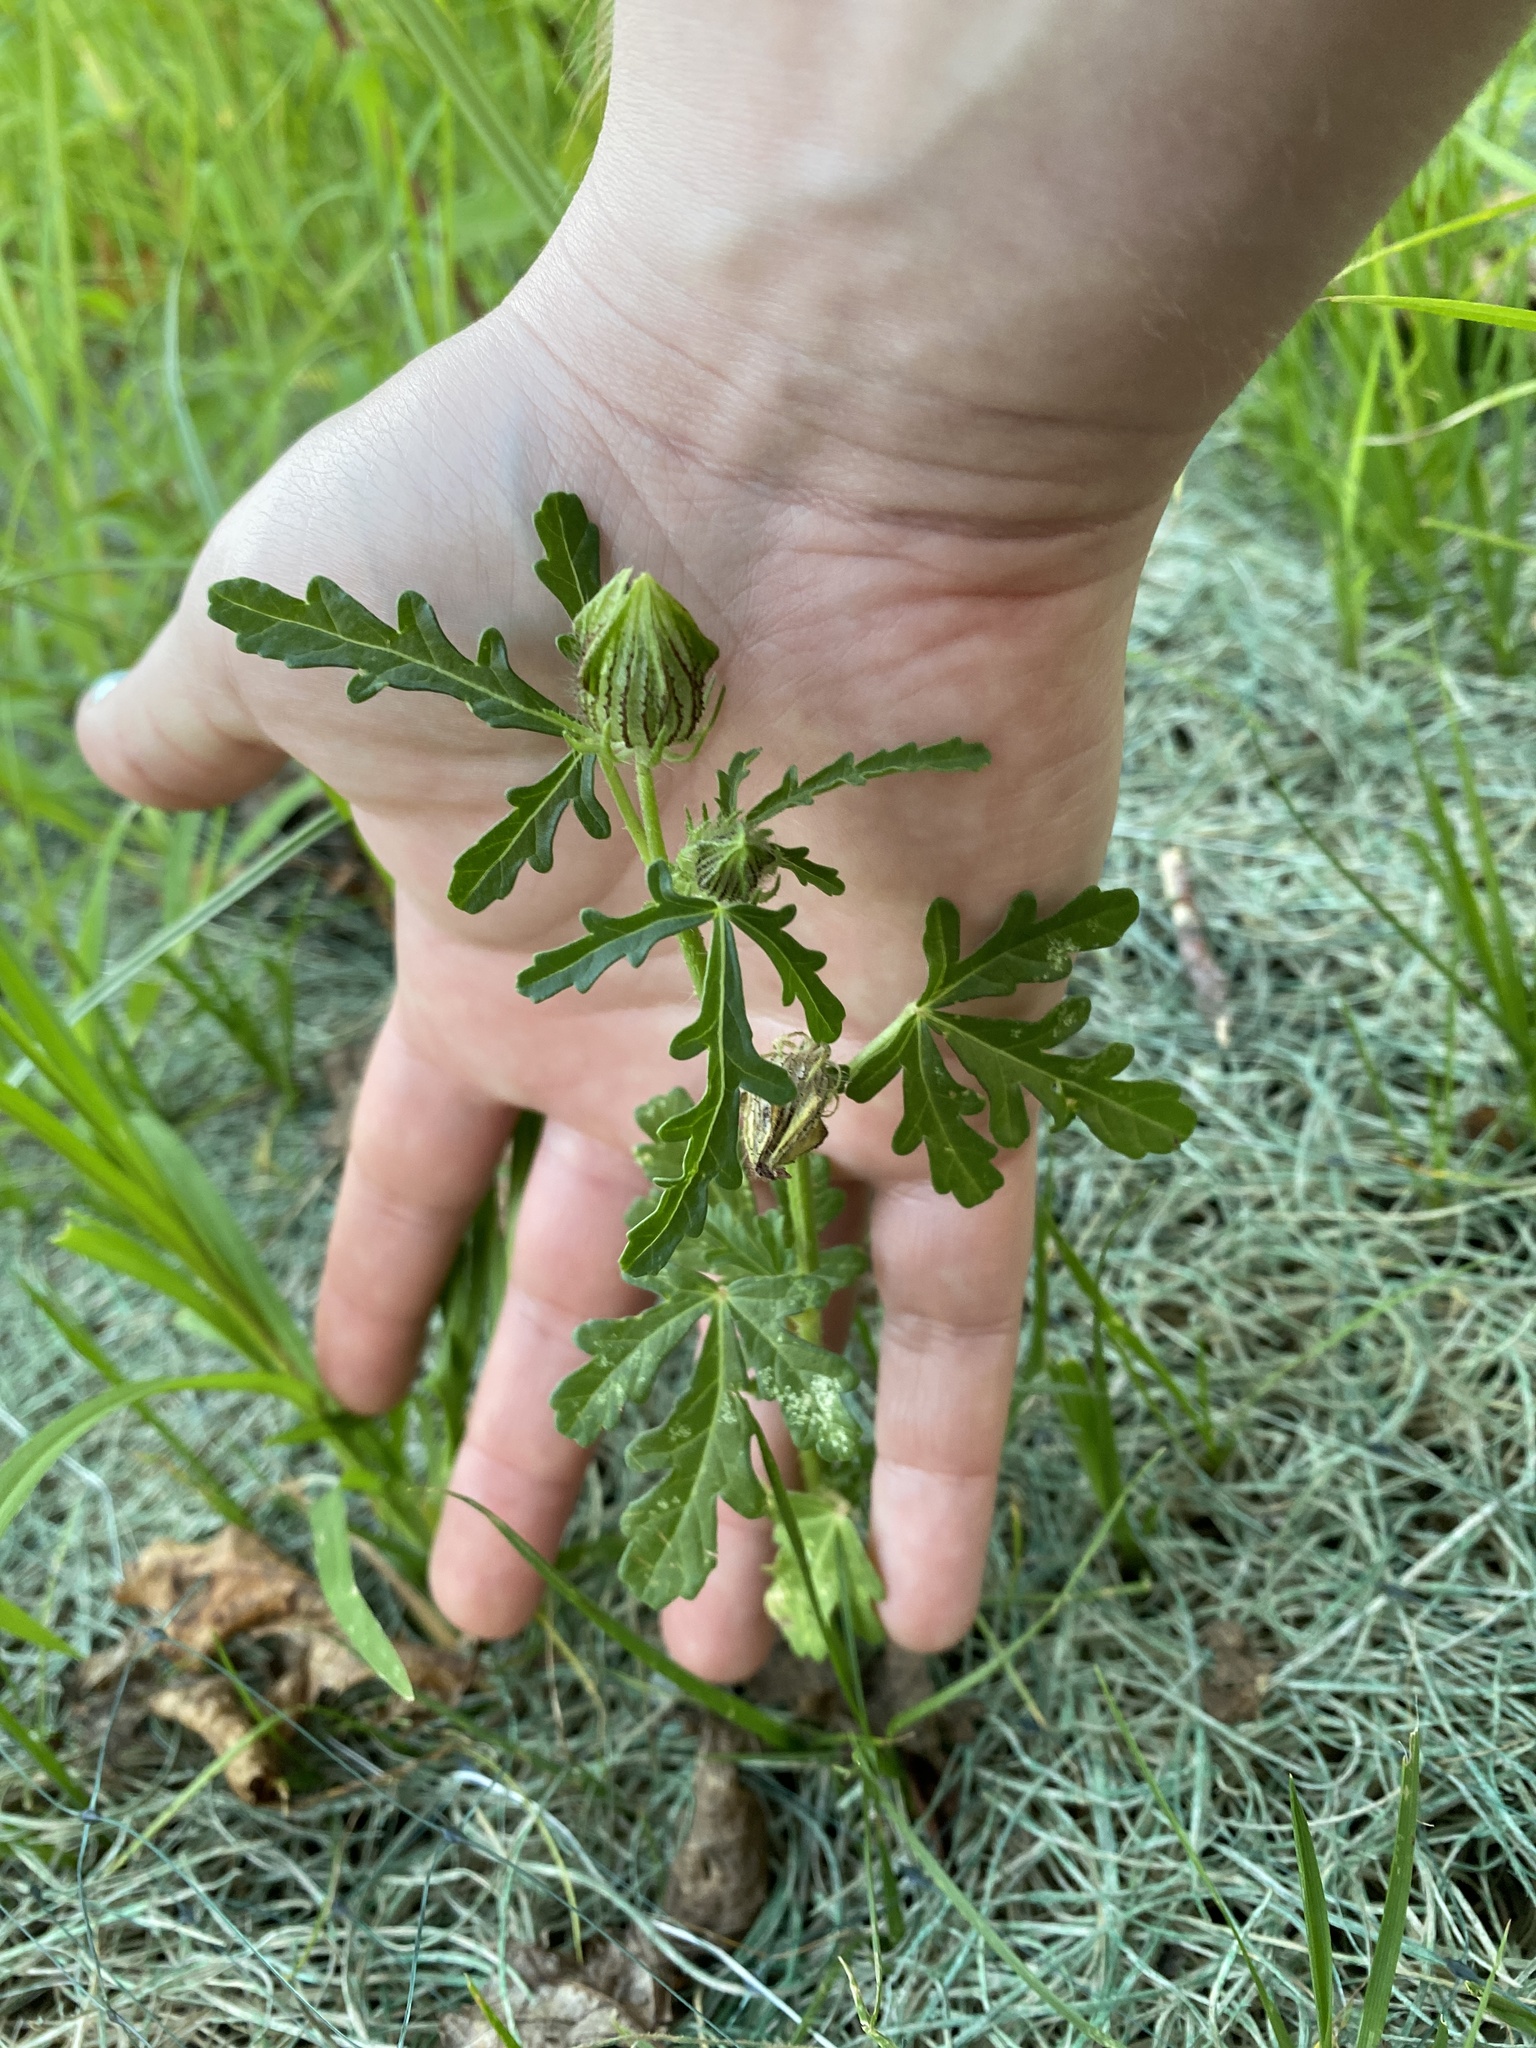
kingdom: Plantae
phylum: Tracheophyta
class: Magnoliopsida
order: Malvales
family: Malvaceae
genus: Hibiscus
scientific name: Hibiscus trionum
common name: Bladder ketmia
